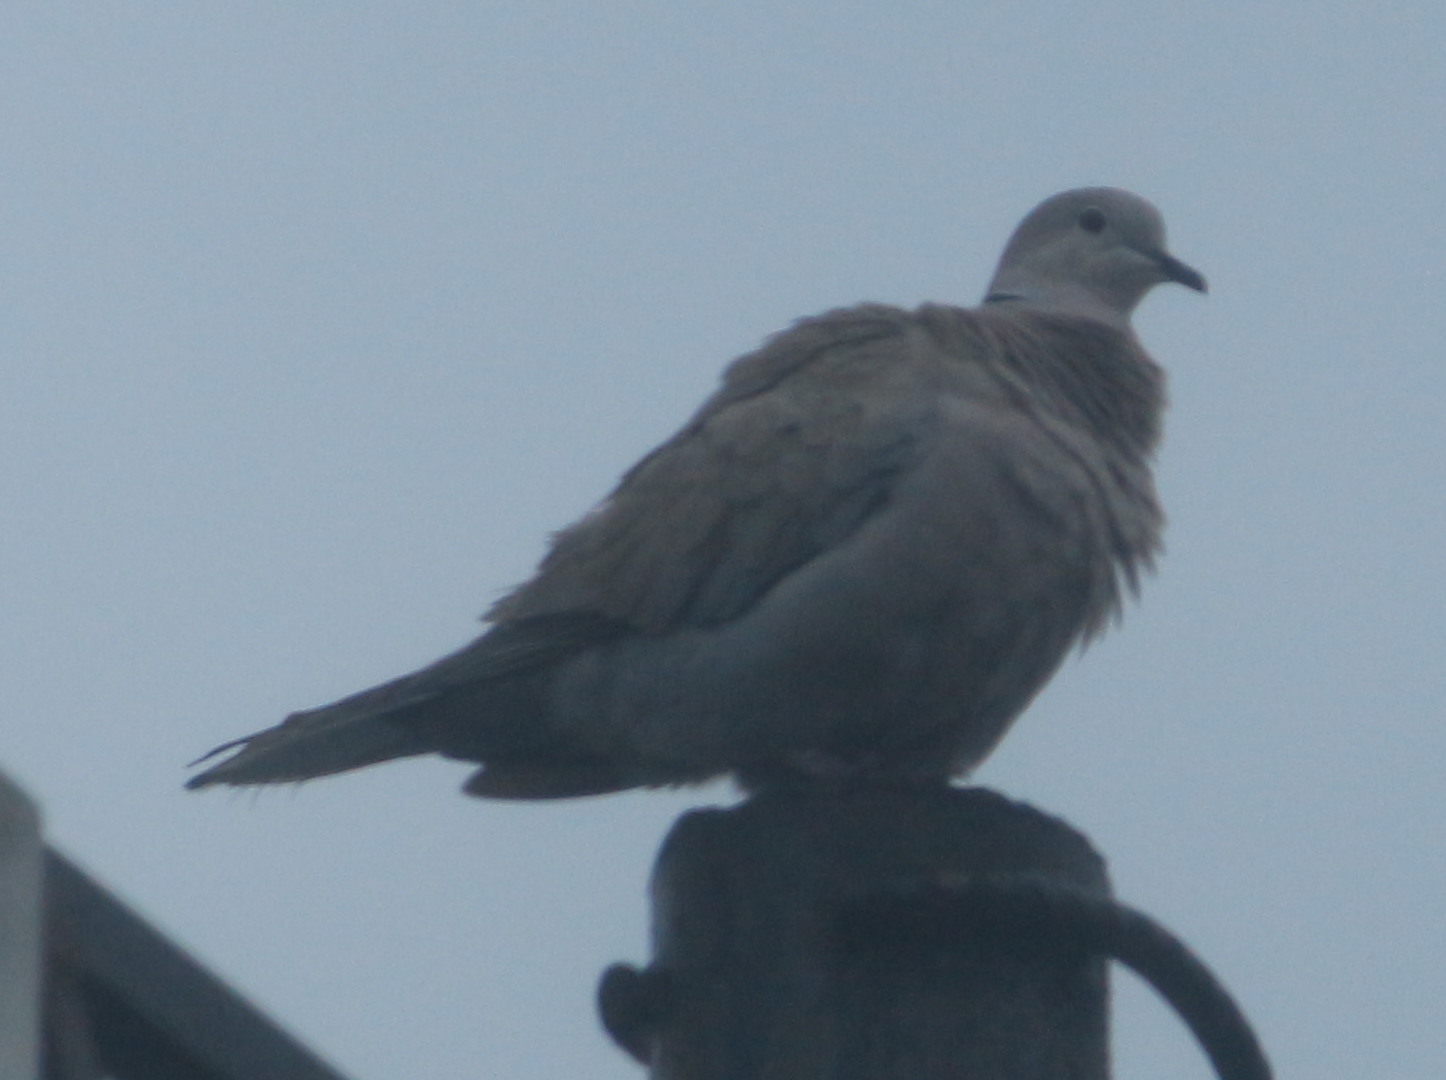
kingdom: Animalia
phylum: Chordata
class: Aves
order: Columbiformes
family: Columbidae
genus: Streptopelia
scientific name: Streptopelia decaocto
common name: Eurasian collared dove
